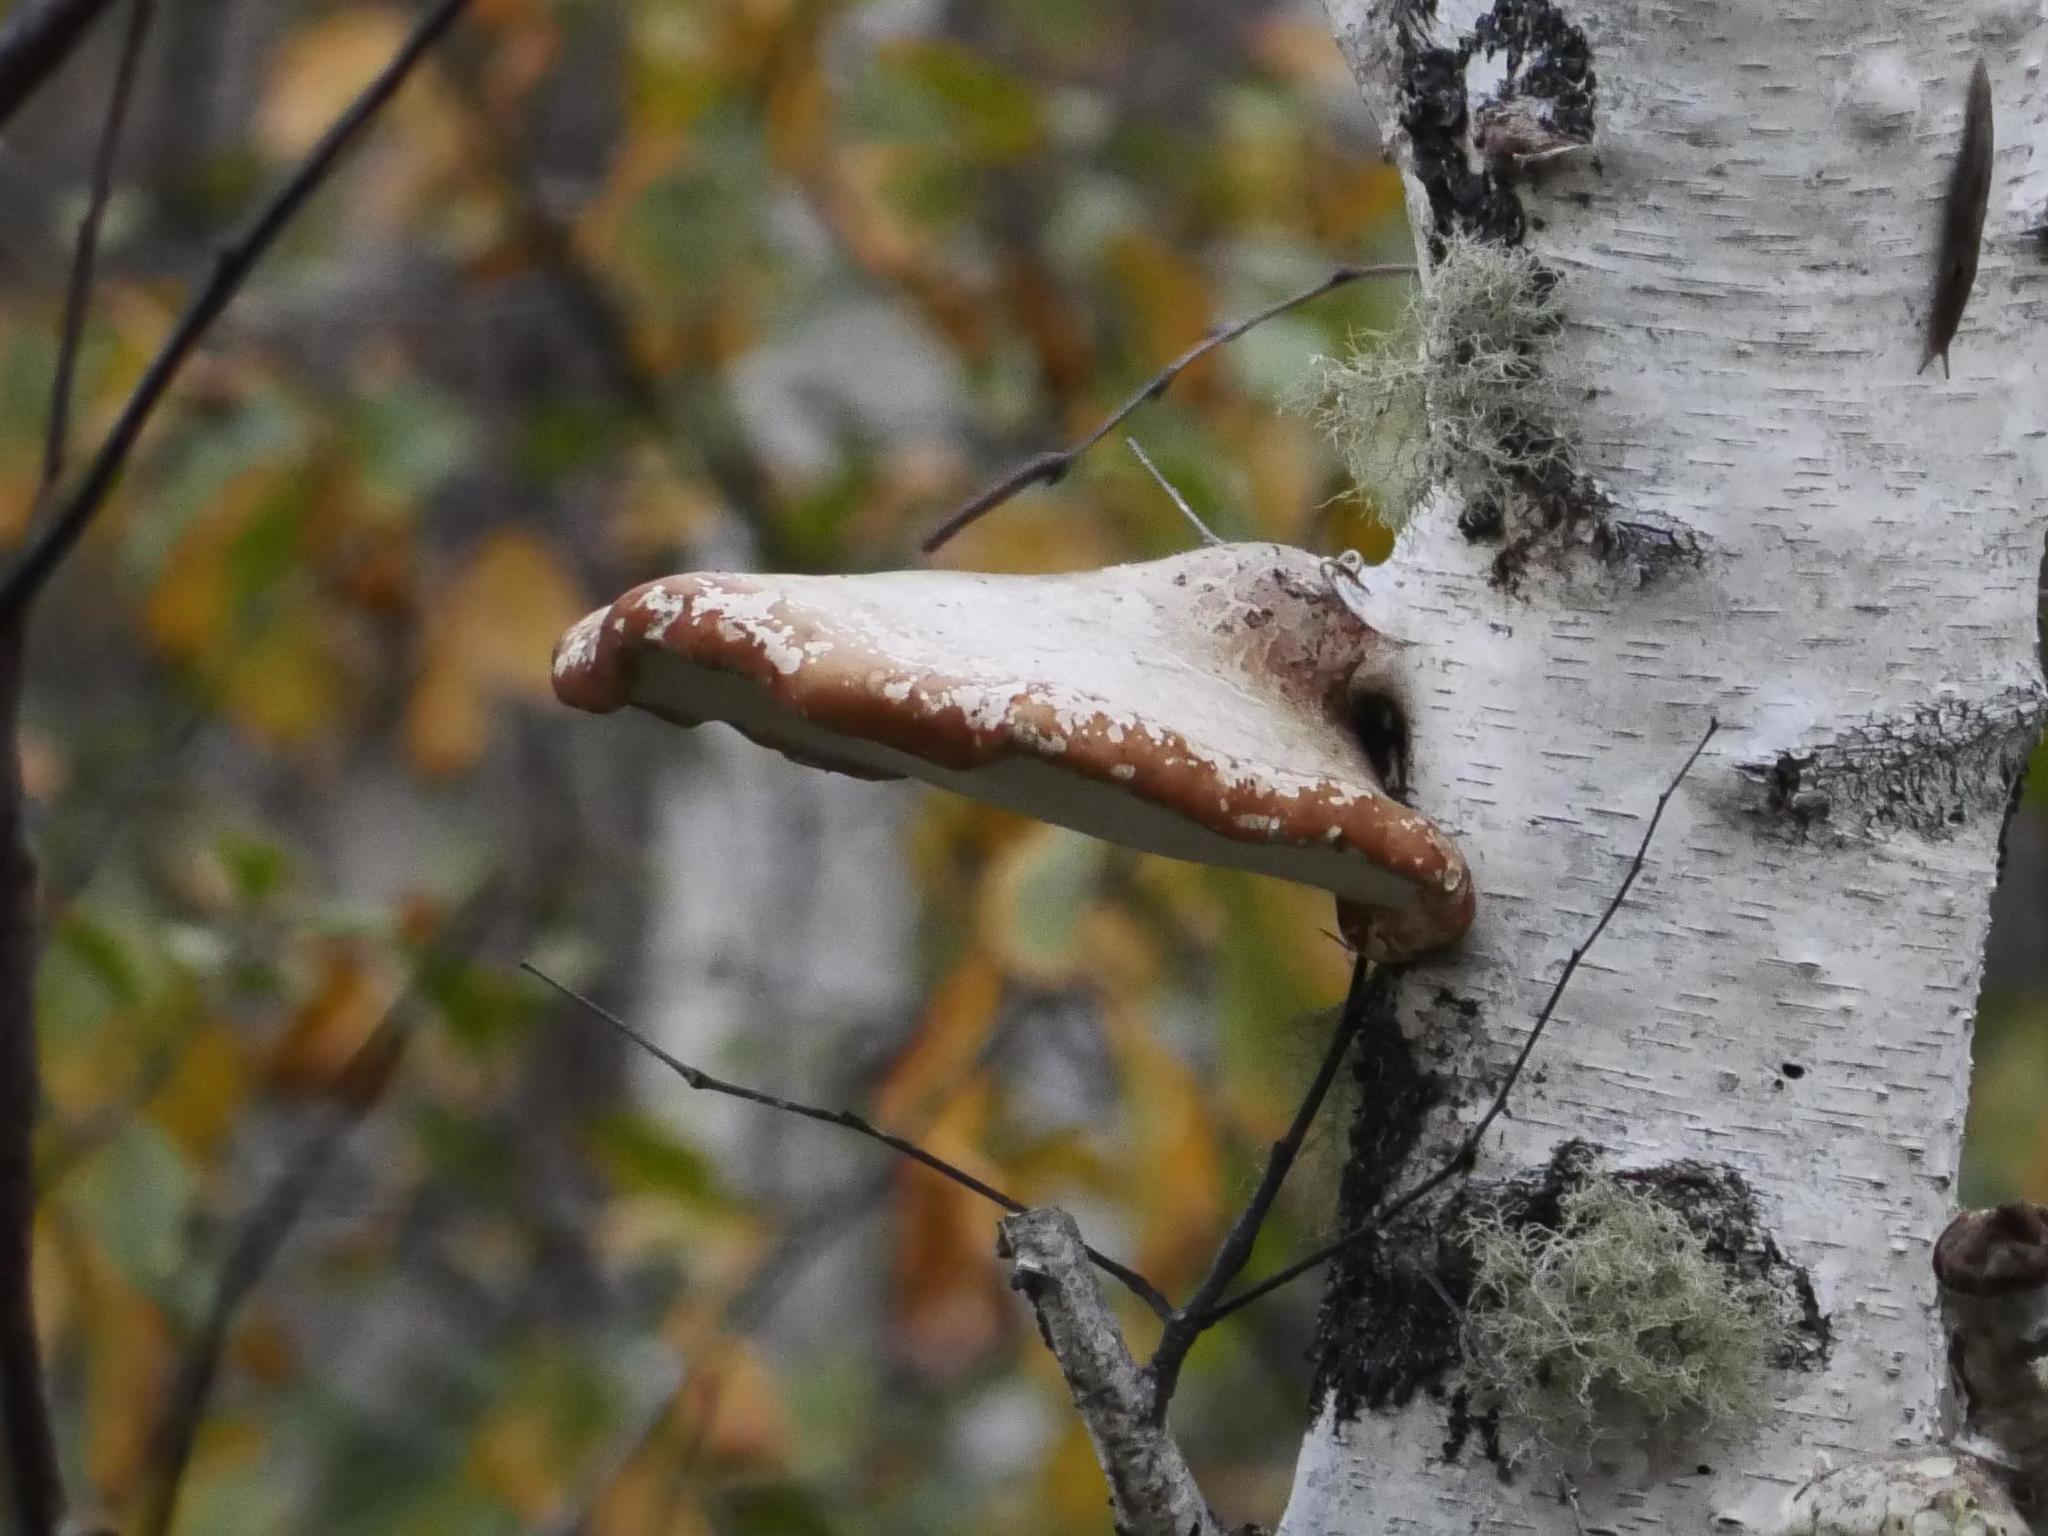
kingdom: Fungi
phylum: Basidiomycota
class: Agaricomycetes
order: Polyporales
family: Fomitopsidaceae
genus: Fomitopsis
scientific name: Fomitopsis betulina
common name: Birch polypore
